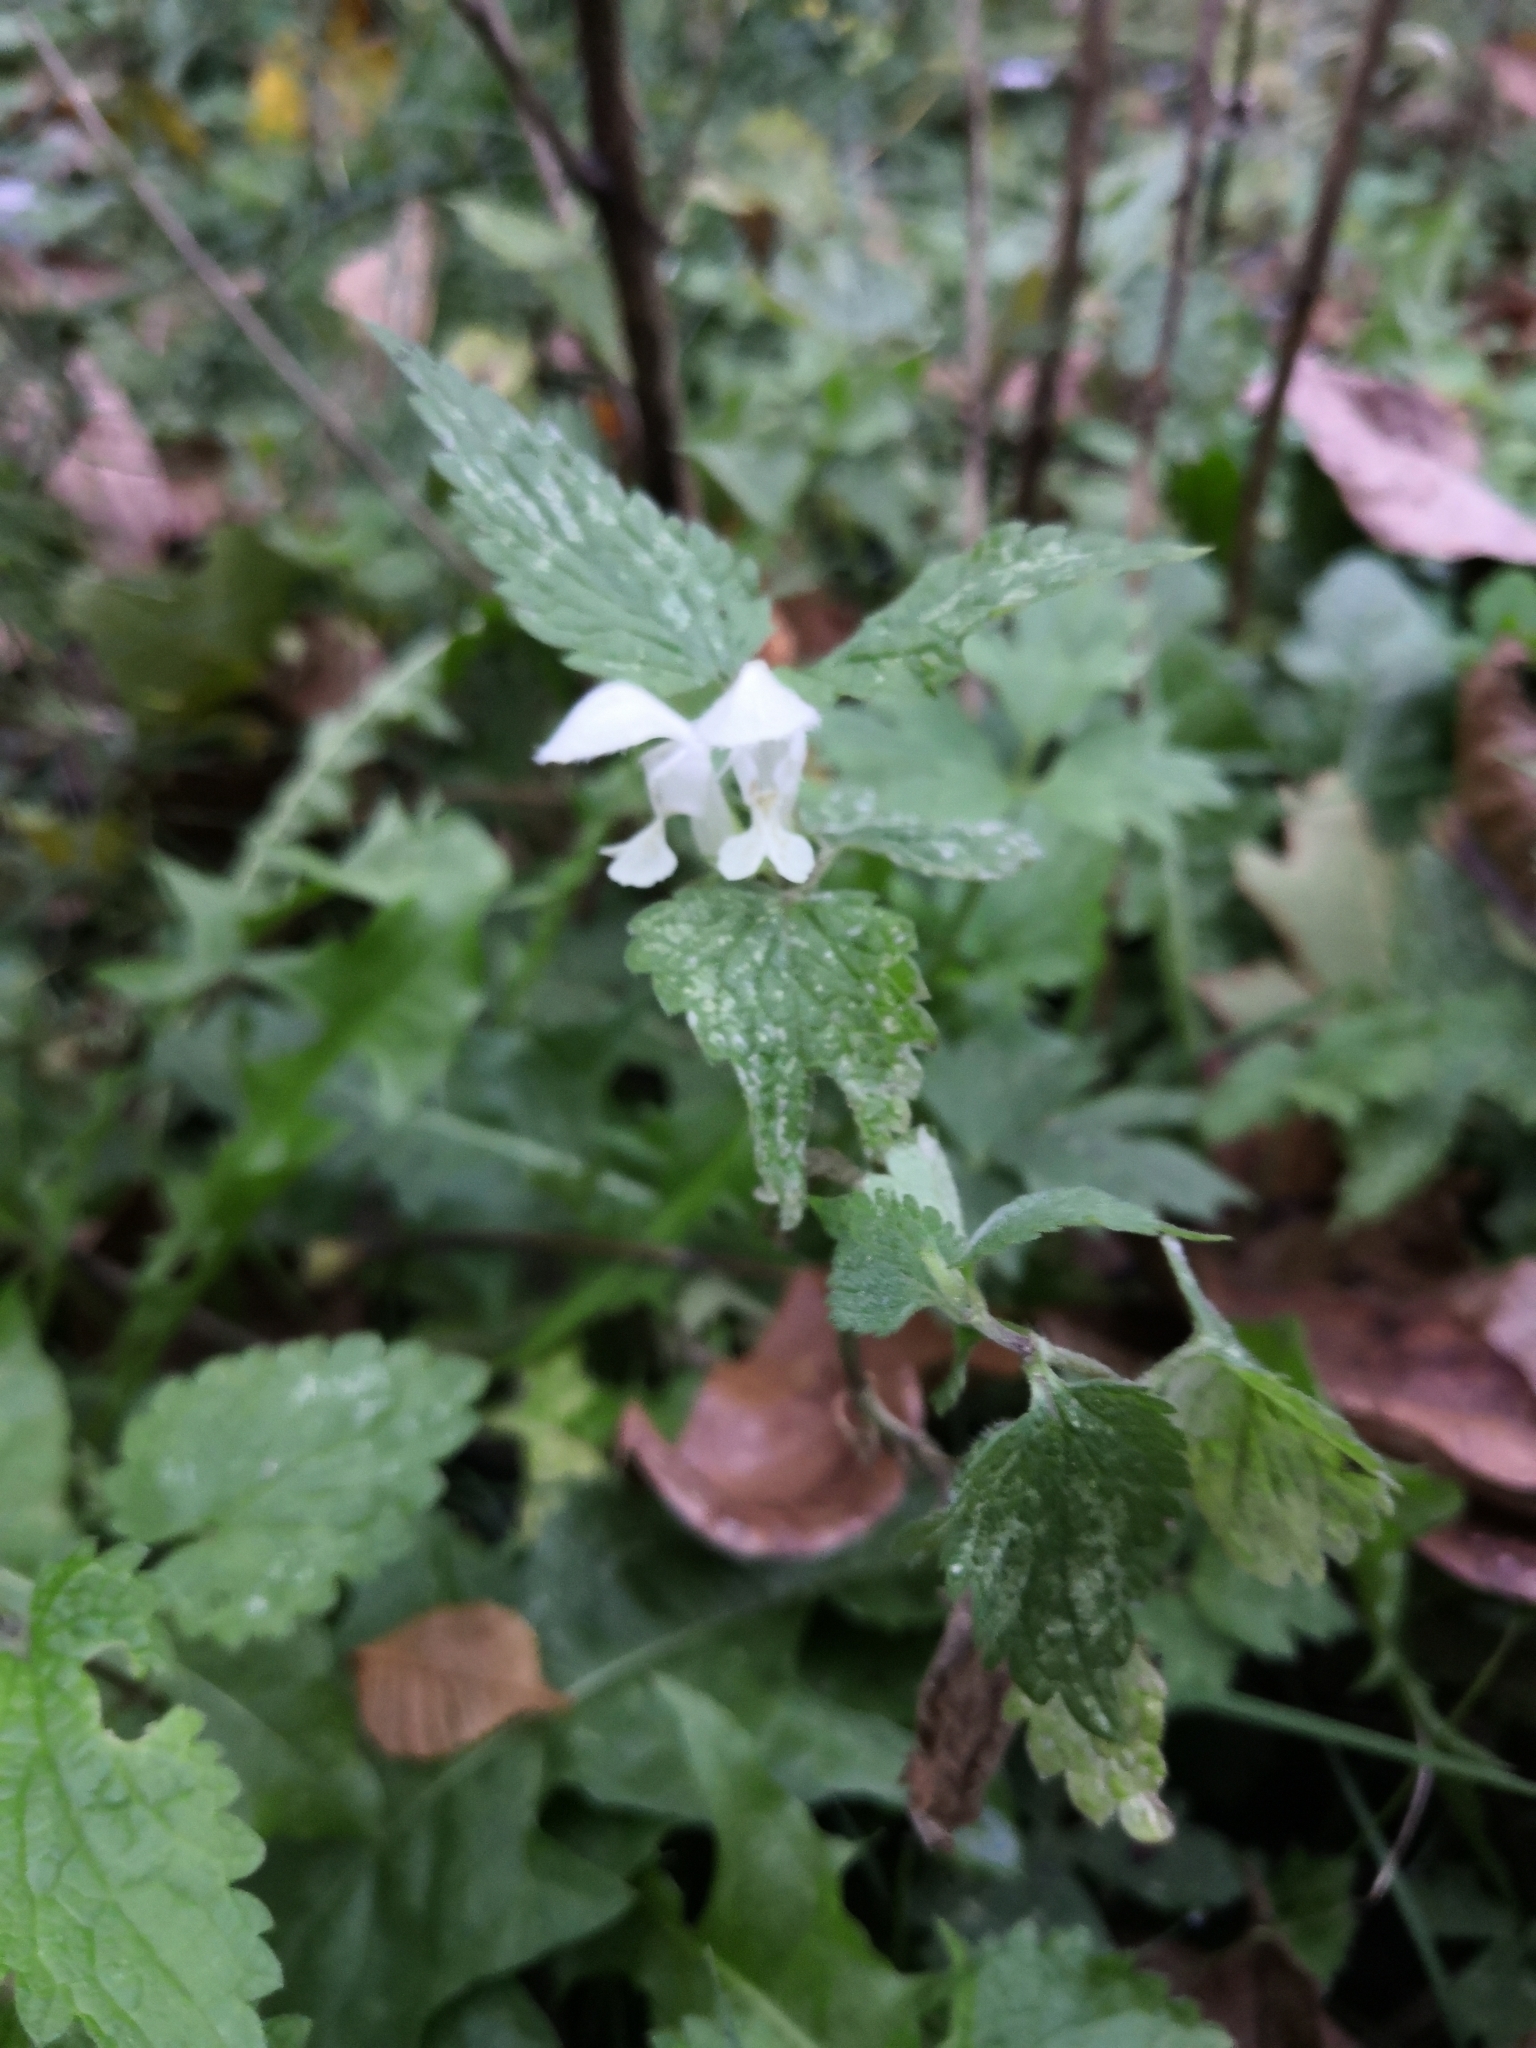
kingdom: Plantae
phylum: Tracheophyta
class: Magnoliopsida
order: Lamiales
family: Lamiaceae
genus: Lamium
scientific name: Lamium album
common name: White dead-nettle
